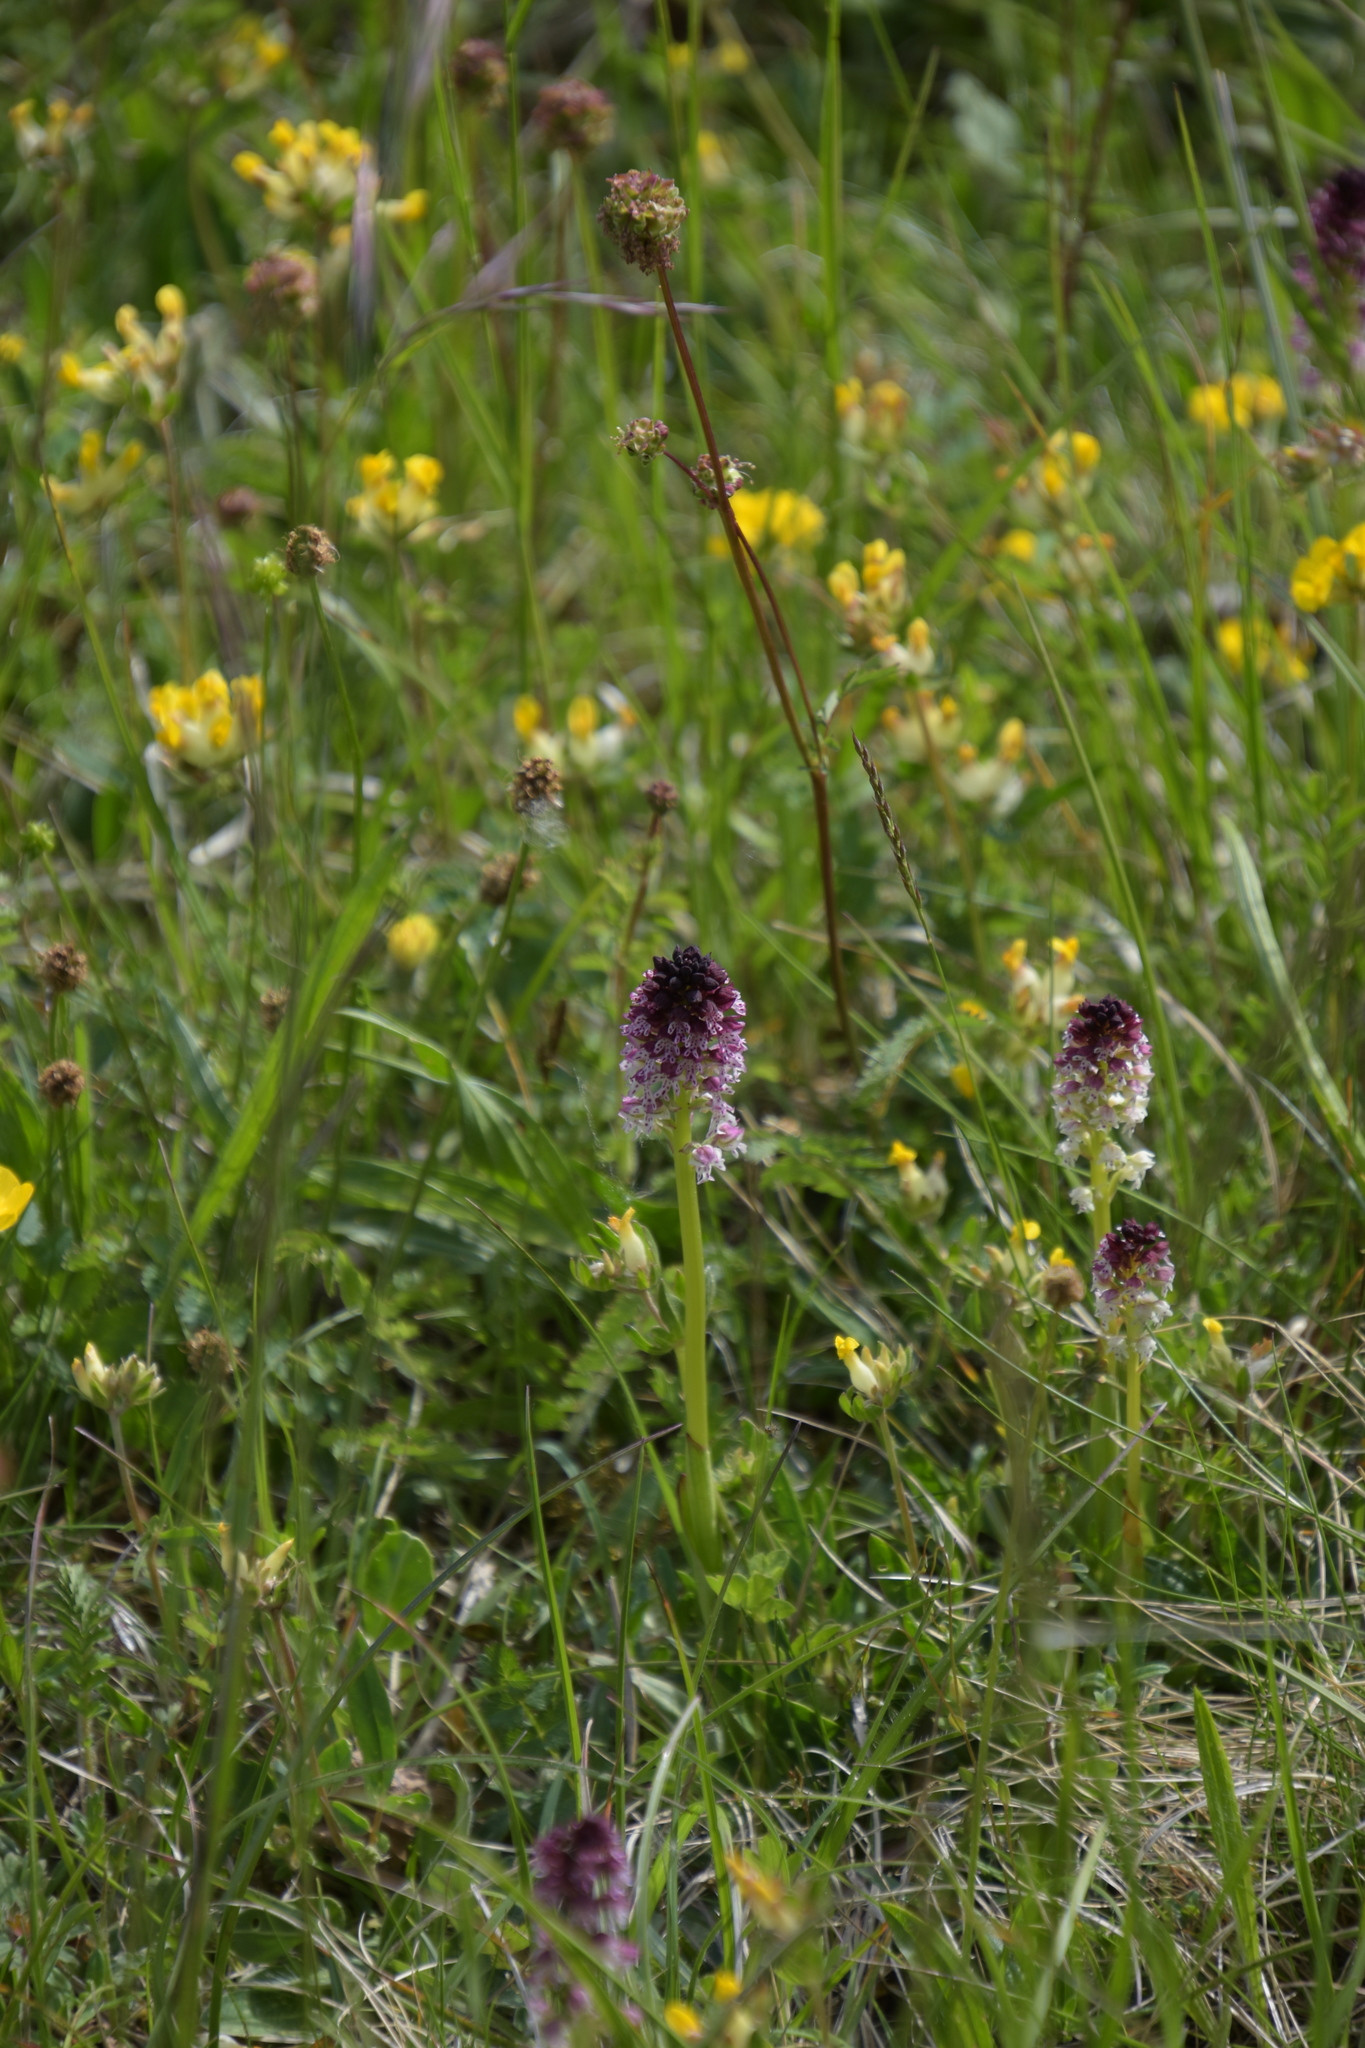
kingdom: Plantae
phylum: Tracheophyta
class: Liliopsida
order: Asparagales
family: Orchidaceae
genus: Neotinea
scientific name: Neotinea ustulata
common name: Burnt orchid
